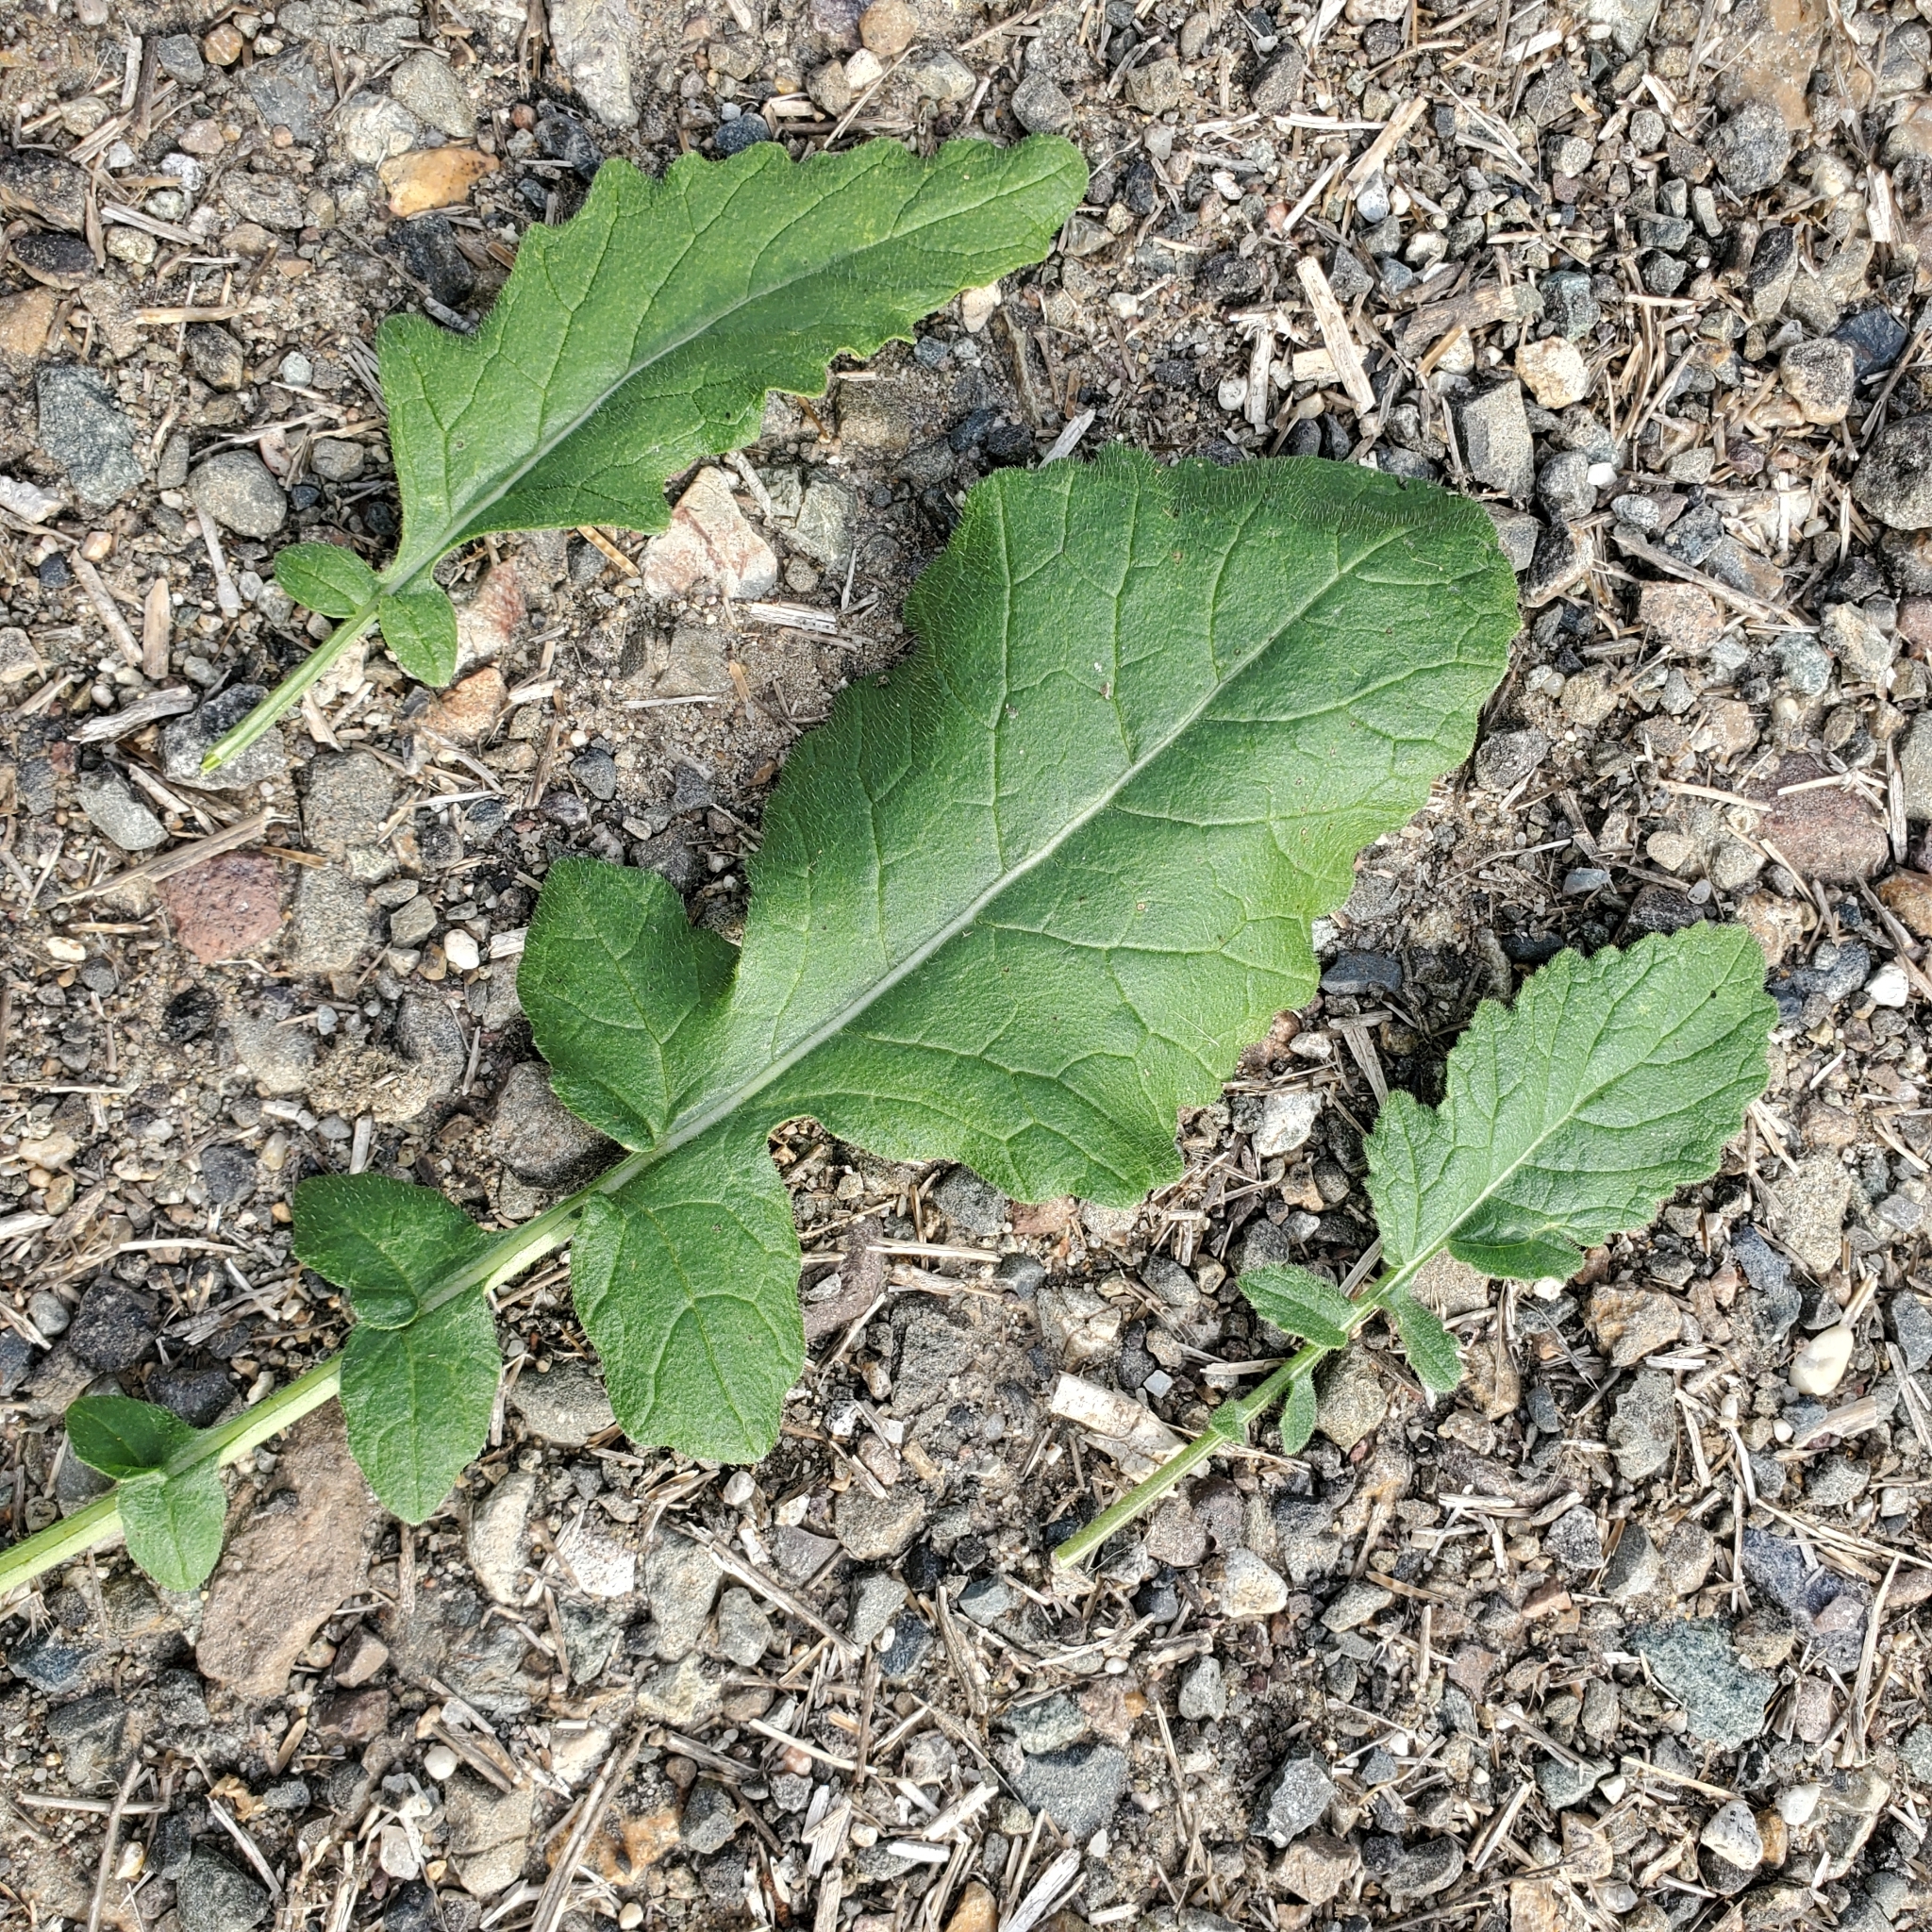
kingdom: Plantae
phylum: Tracheophyta
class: Magnoliopsida
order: Brassicales
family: Brassicaceae
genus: Hirschfeldia
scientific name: Hirschfeldia incana
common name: Hoary mustard
